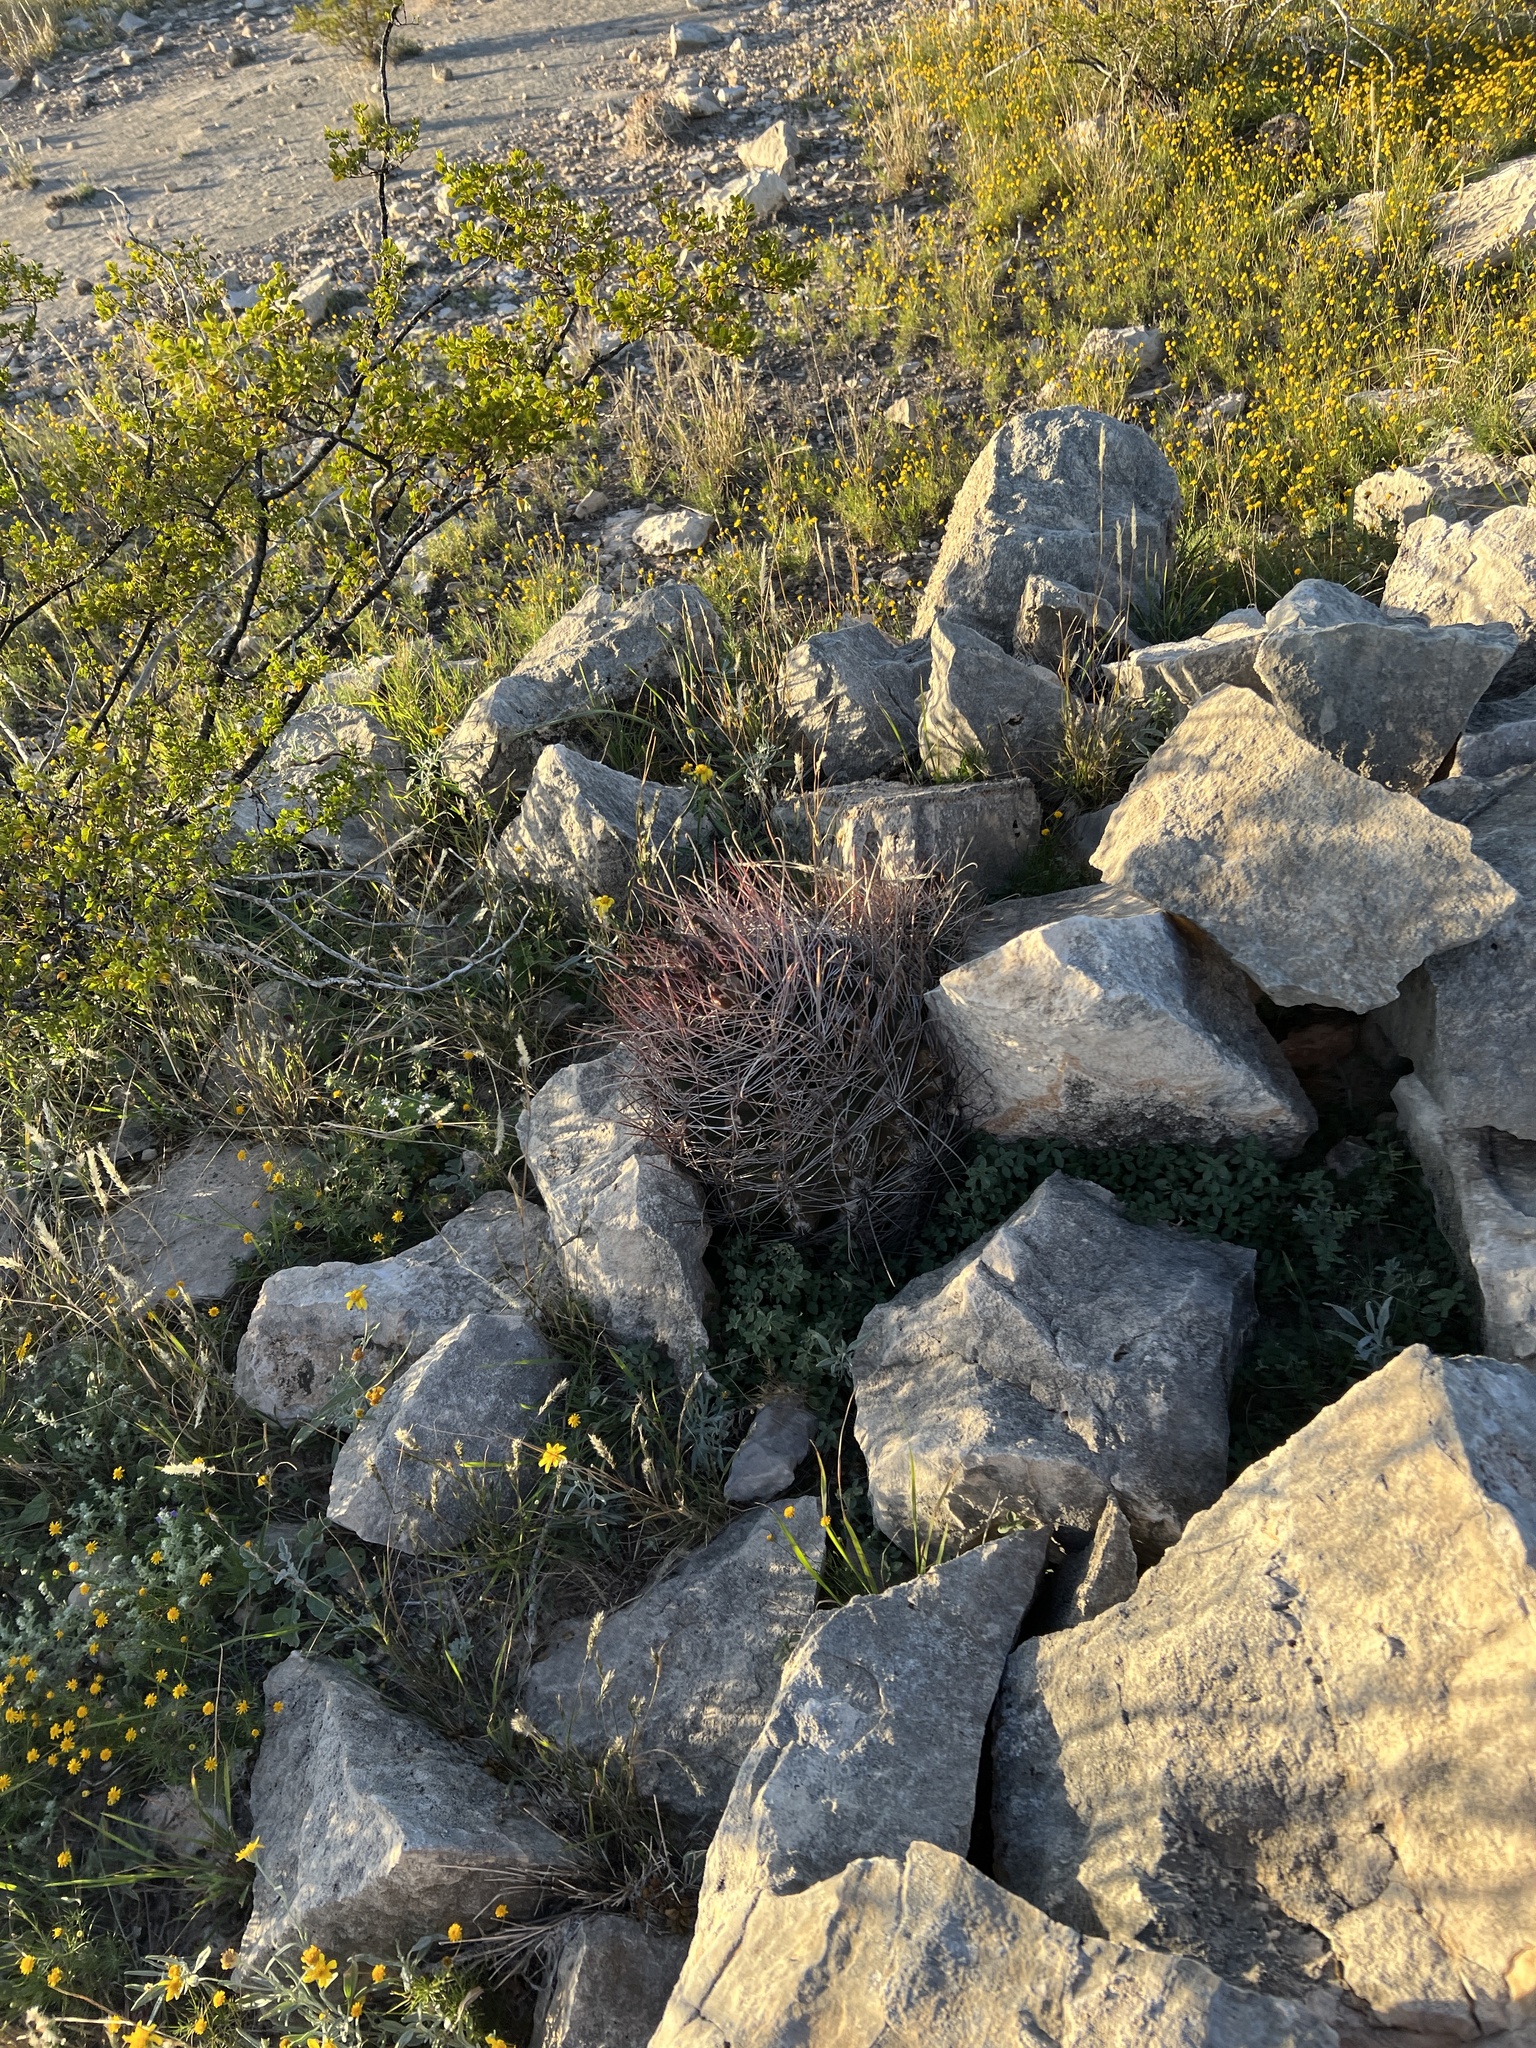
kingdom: Plantae
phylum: Tracheophyta
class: Magnoliopsida
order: Caryophyllales
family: Cactaceae
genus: Bisnaga
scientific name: Bisnaga hamatacantha
